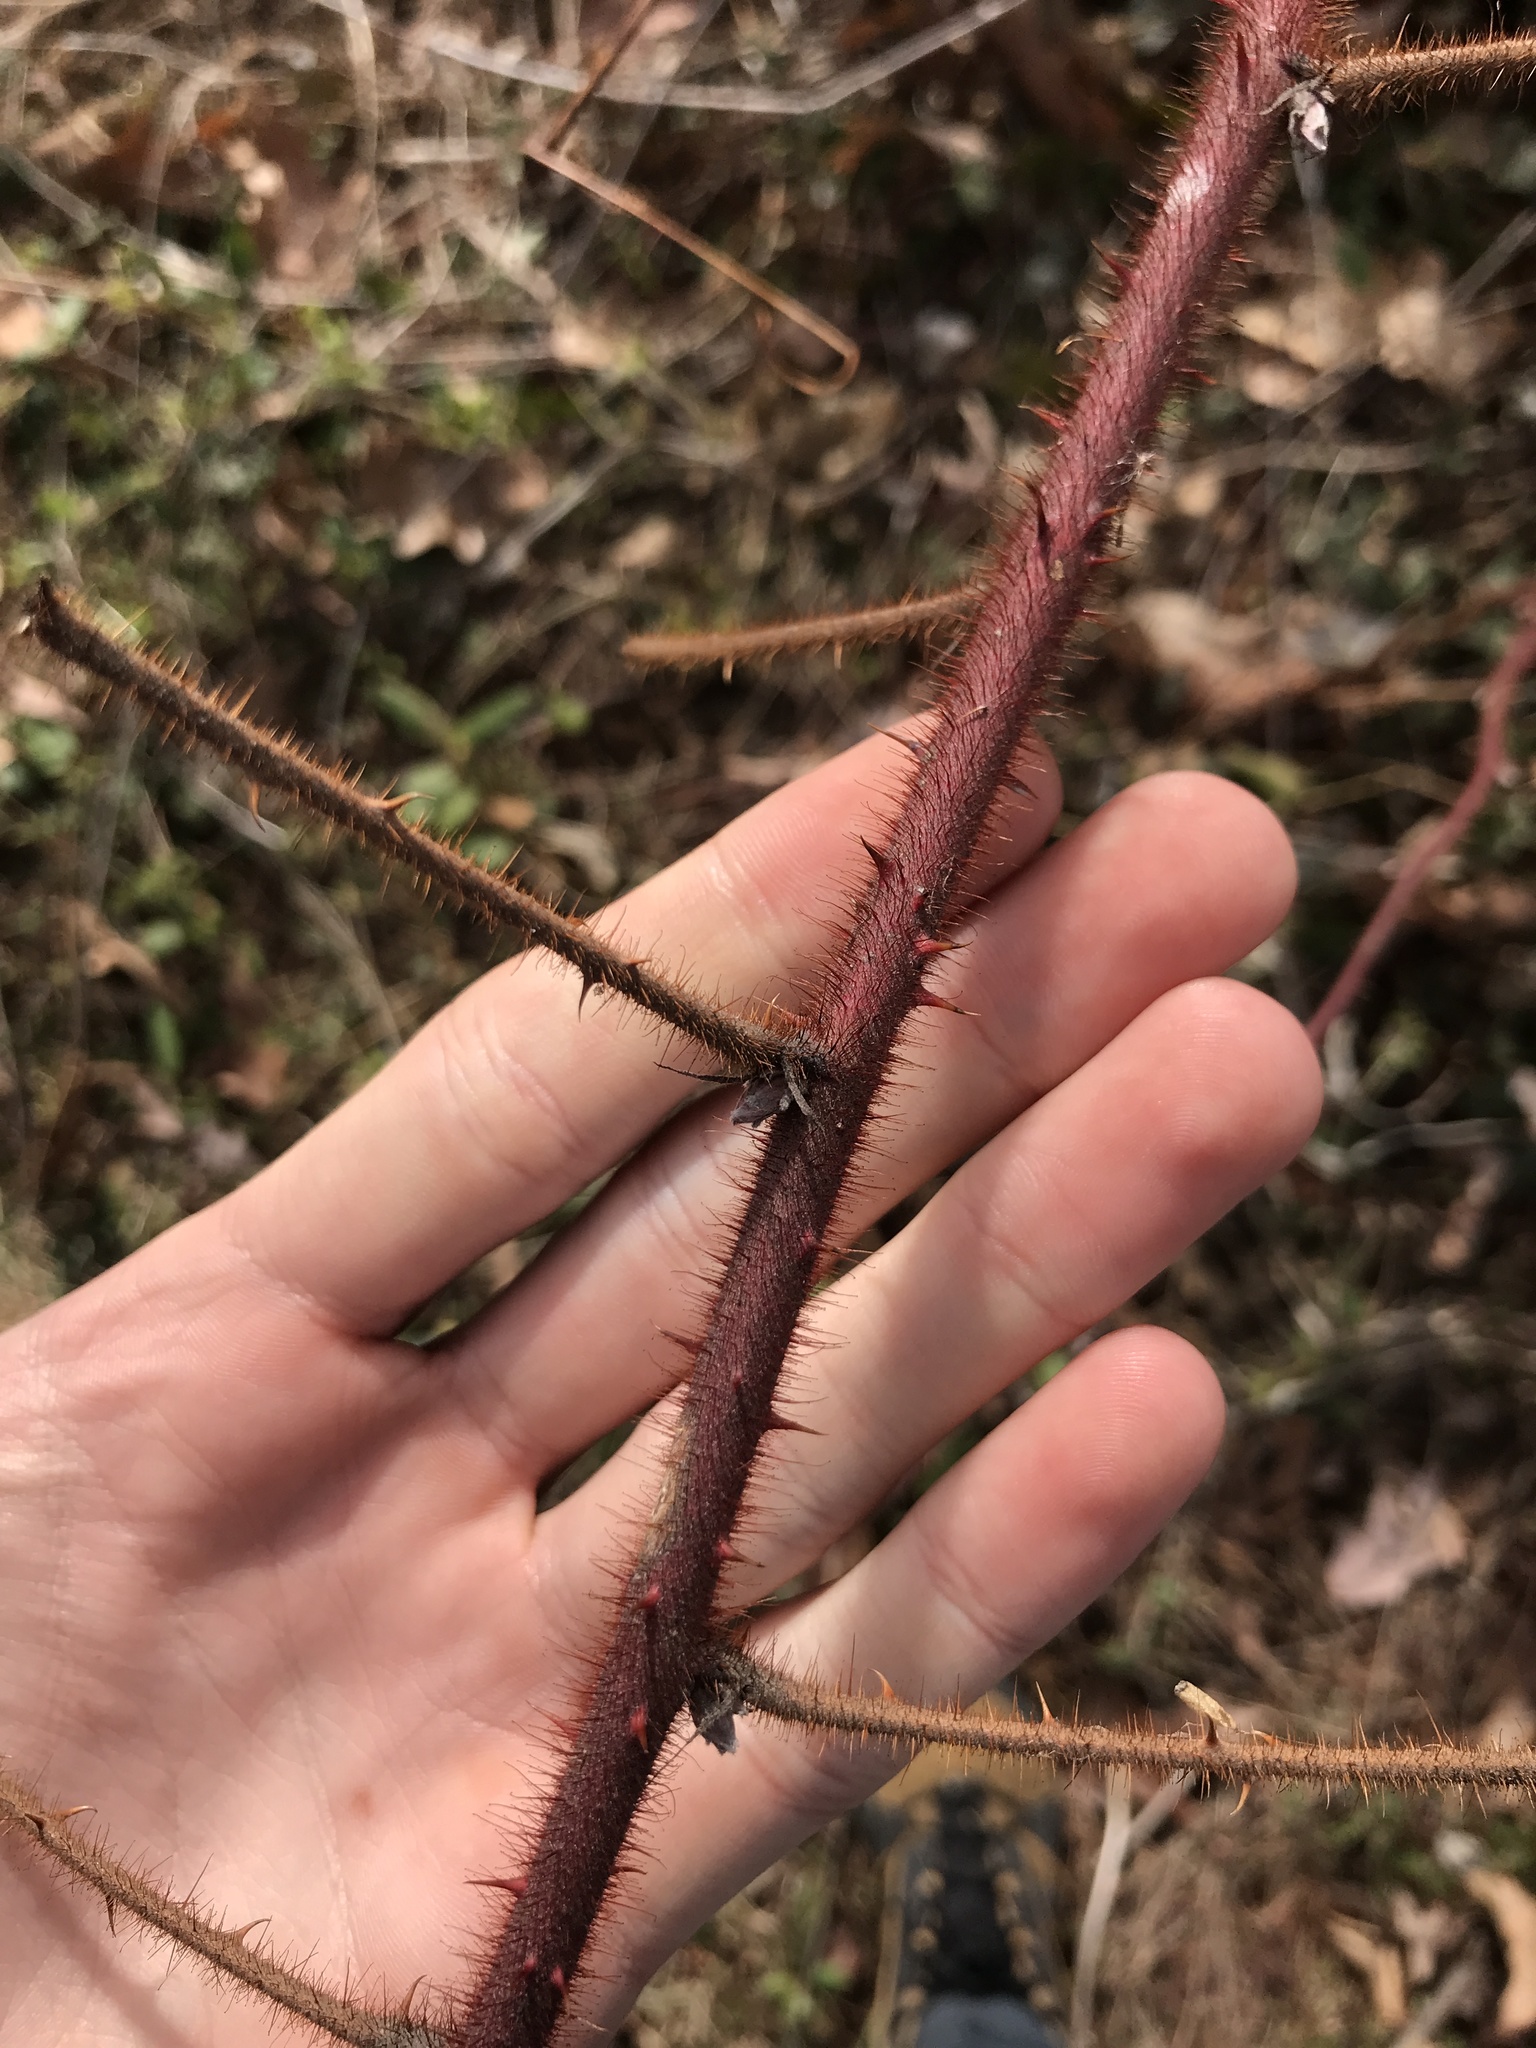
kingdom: Plantae
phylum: Tracheophyta
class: Magnoliopsida
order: Rosales
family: Rosaceae
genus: Rubus
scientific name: Rubus phoenicolasius
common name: Japanese wineberry
